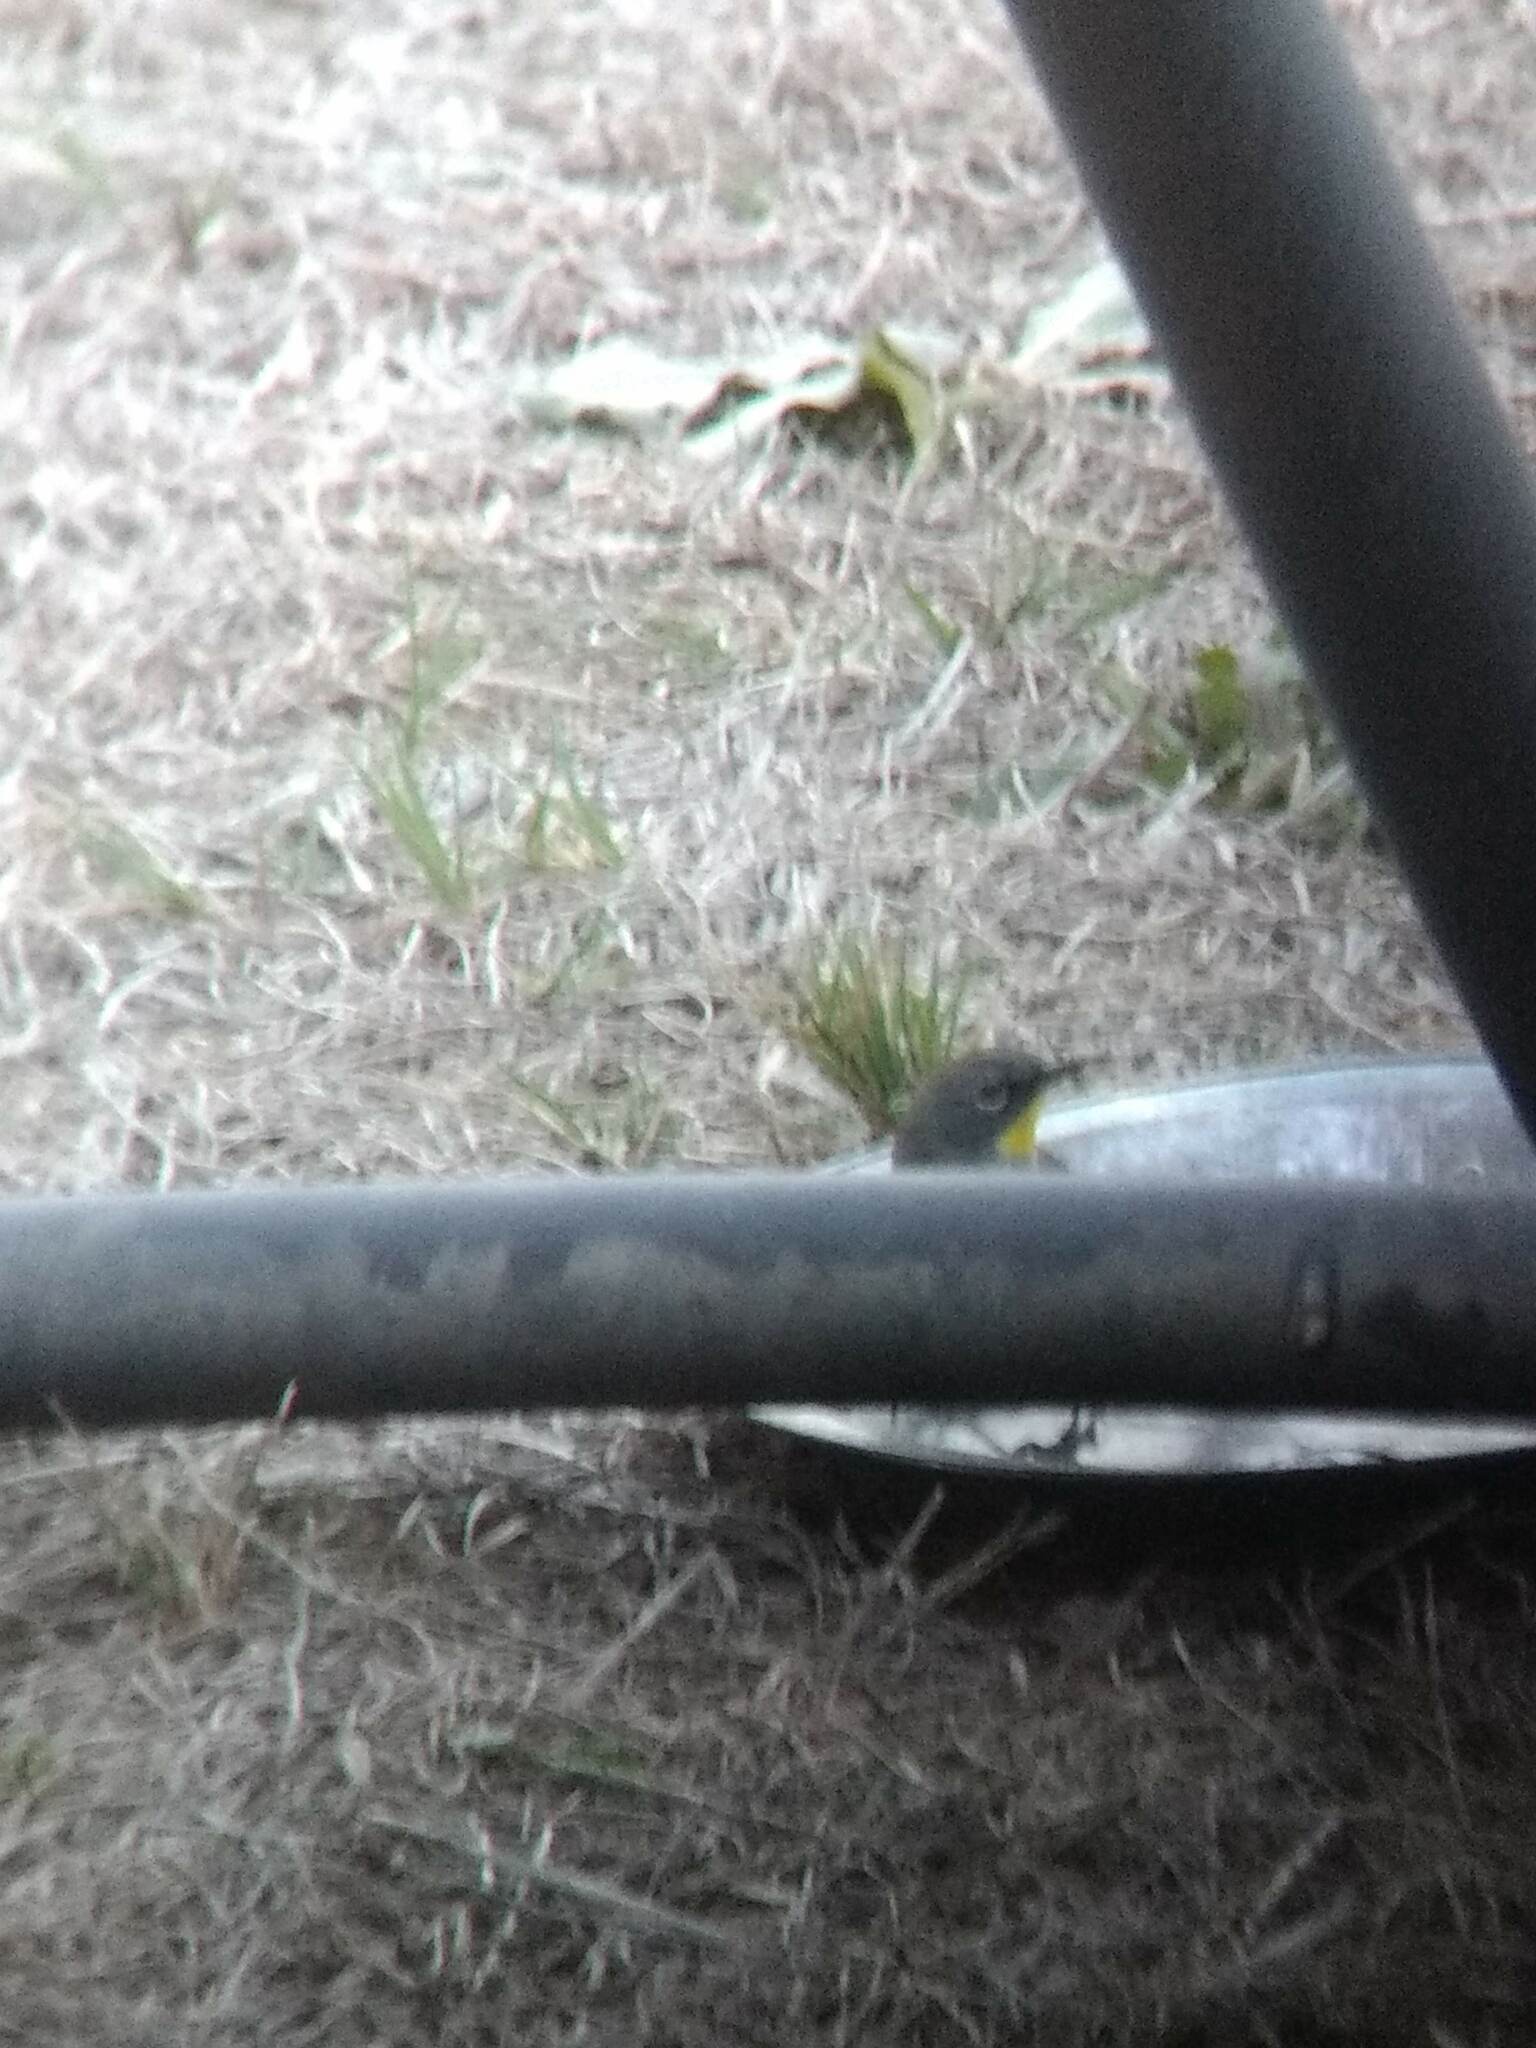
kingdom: Animalia
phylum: Chordata
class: Aves
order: Passeriformes
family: Parulidae
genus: Setophaga
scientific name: Setophaga coronata
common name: Myrtle warbler
